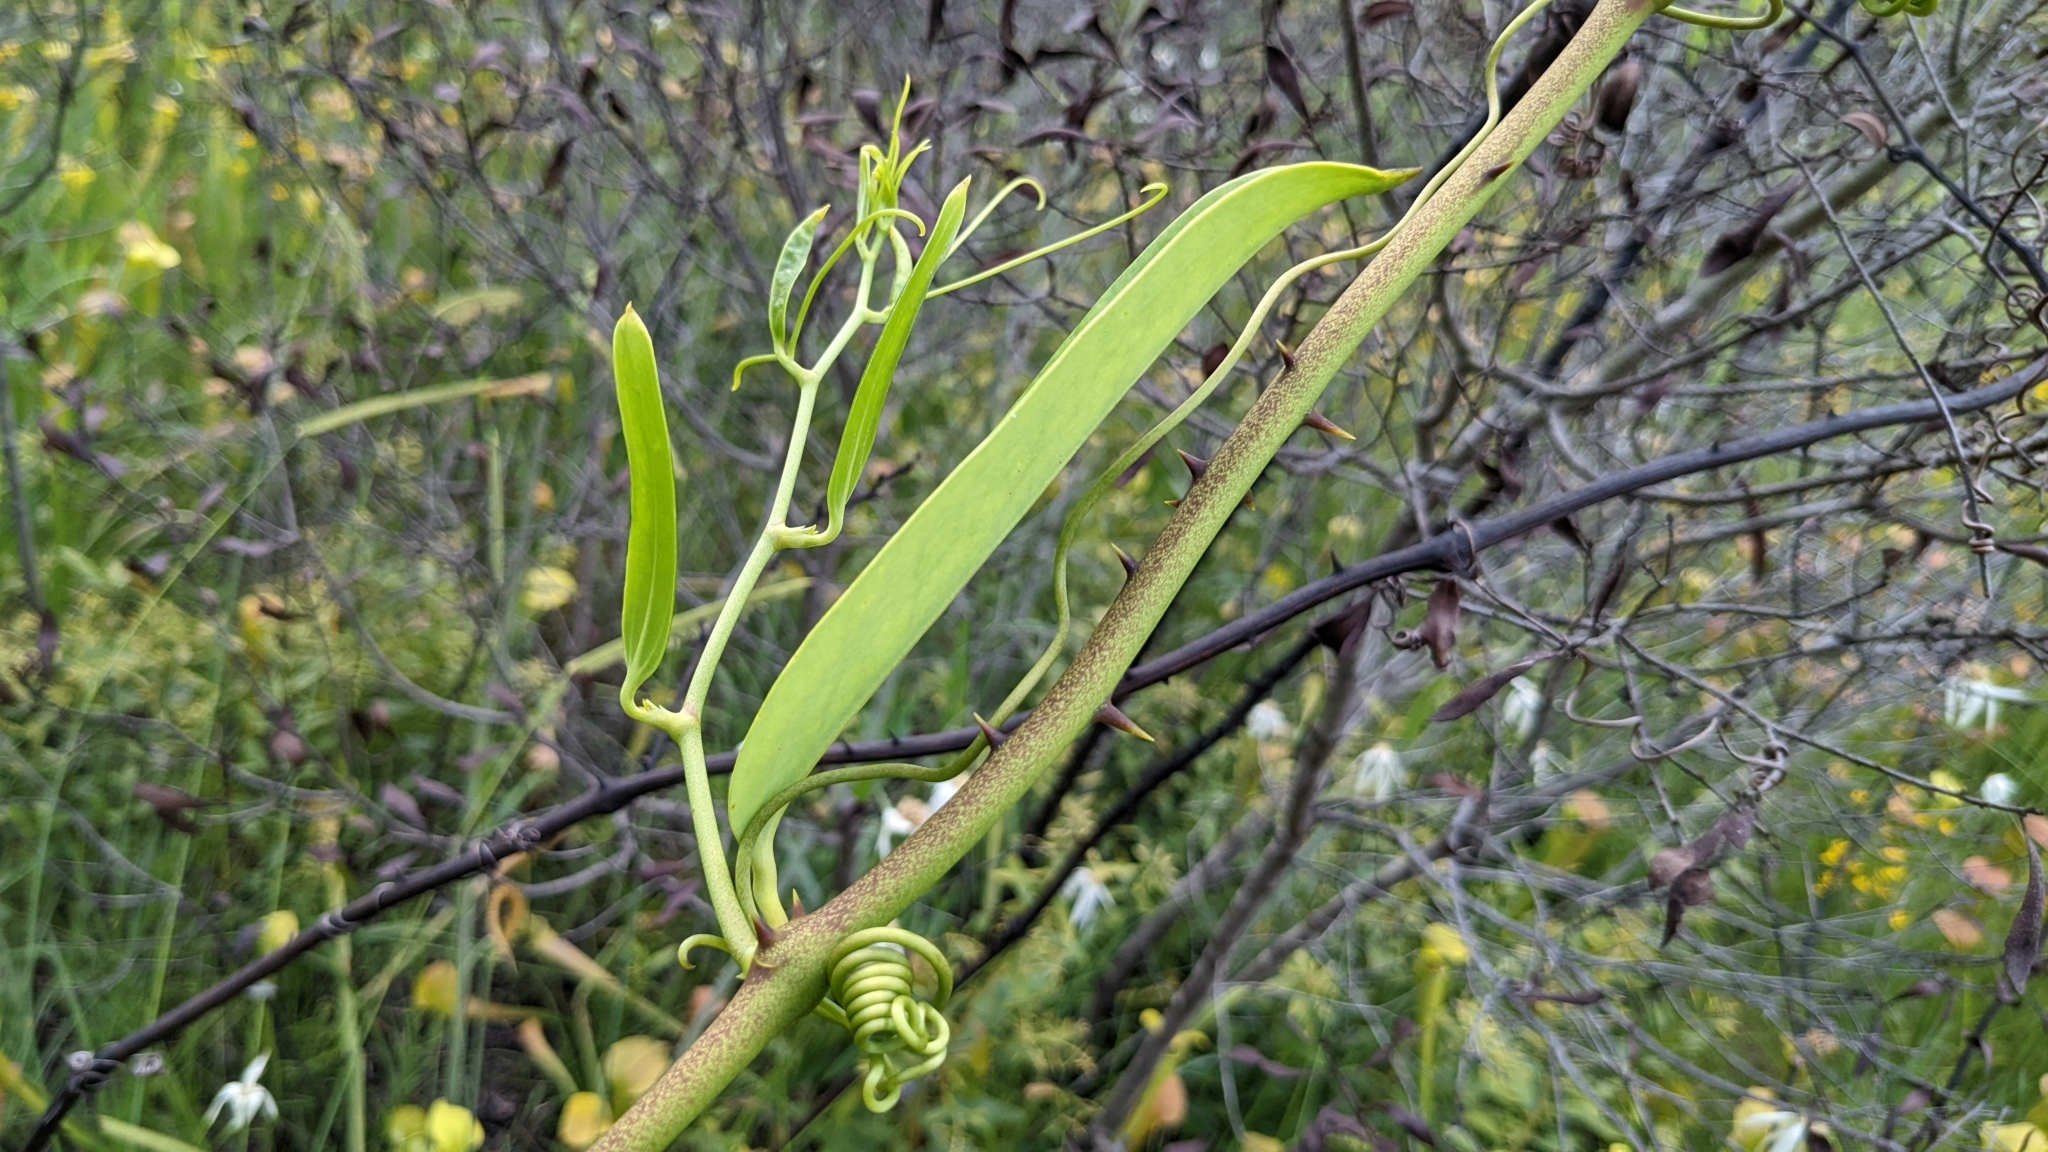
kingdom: Plantae
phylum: Tracheophyta
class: Liliopsida
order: Liliales
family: Smilacaceae
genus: Smilax
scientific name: Smilax laurifolia
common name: Bamboovine
